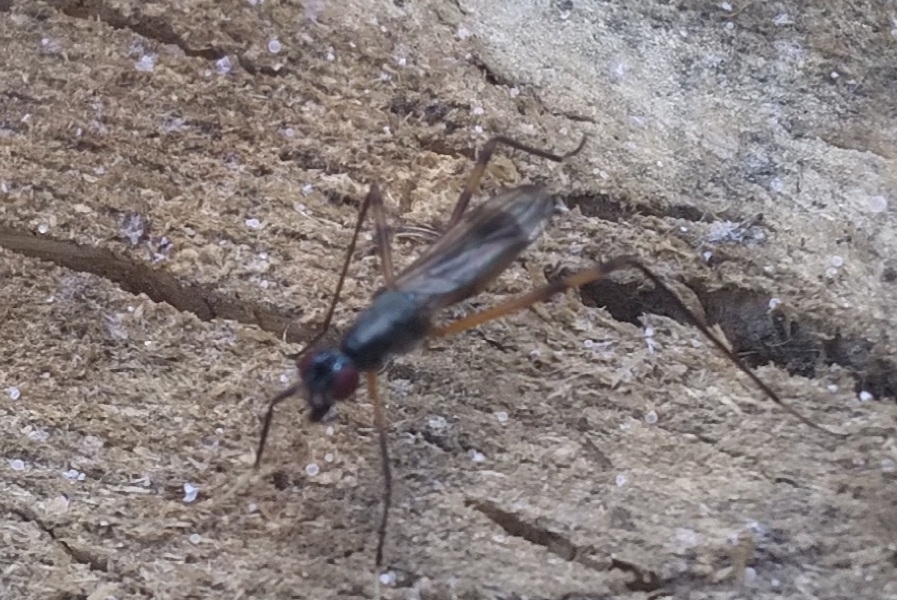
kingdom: Animalia
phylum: Arthropoda
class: Insecta
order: Diptera
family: Micropezidae
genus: Rainieria
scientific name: Rainieria antennaepes
